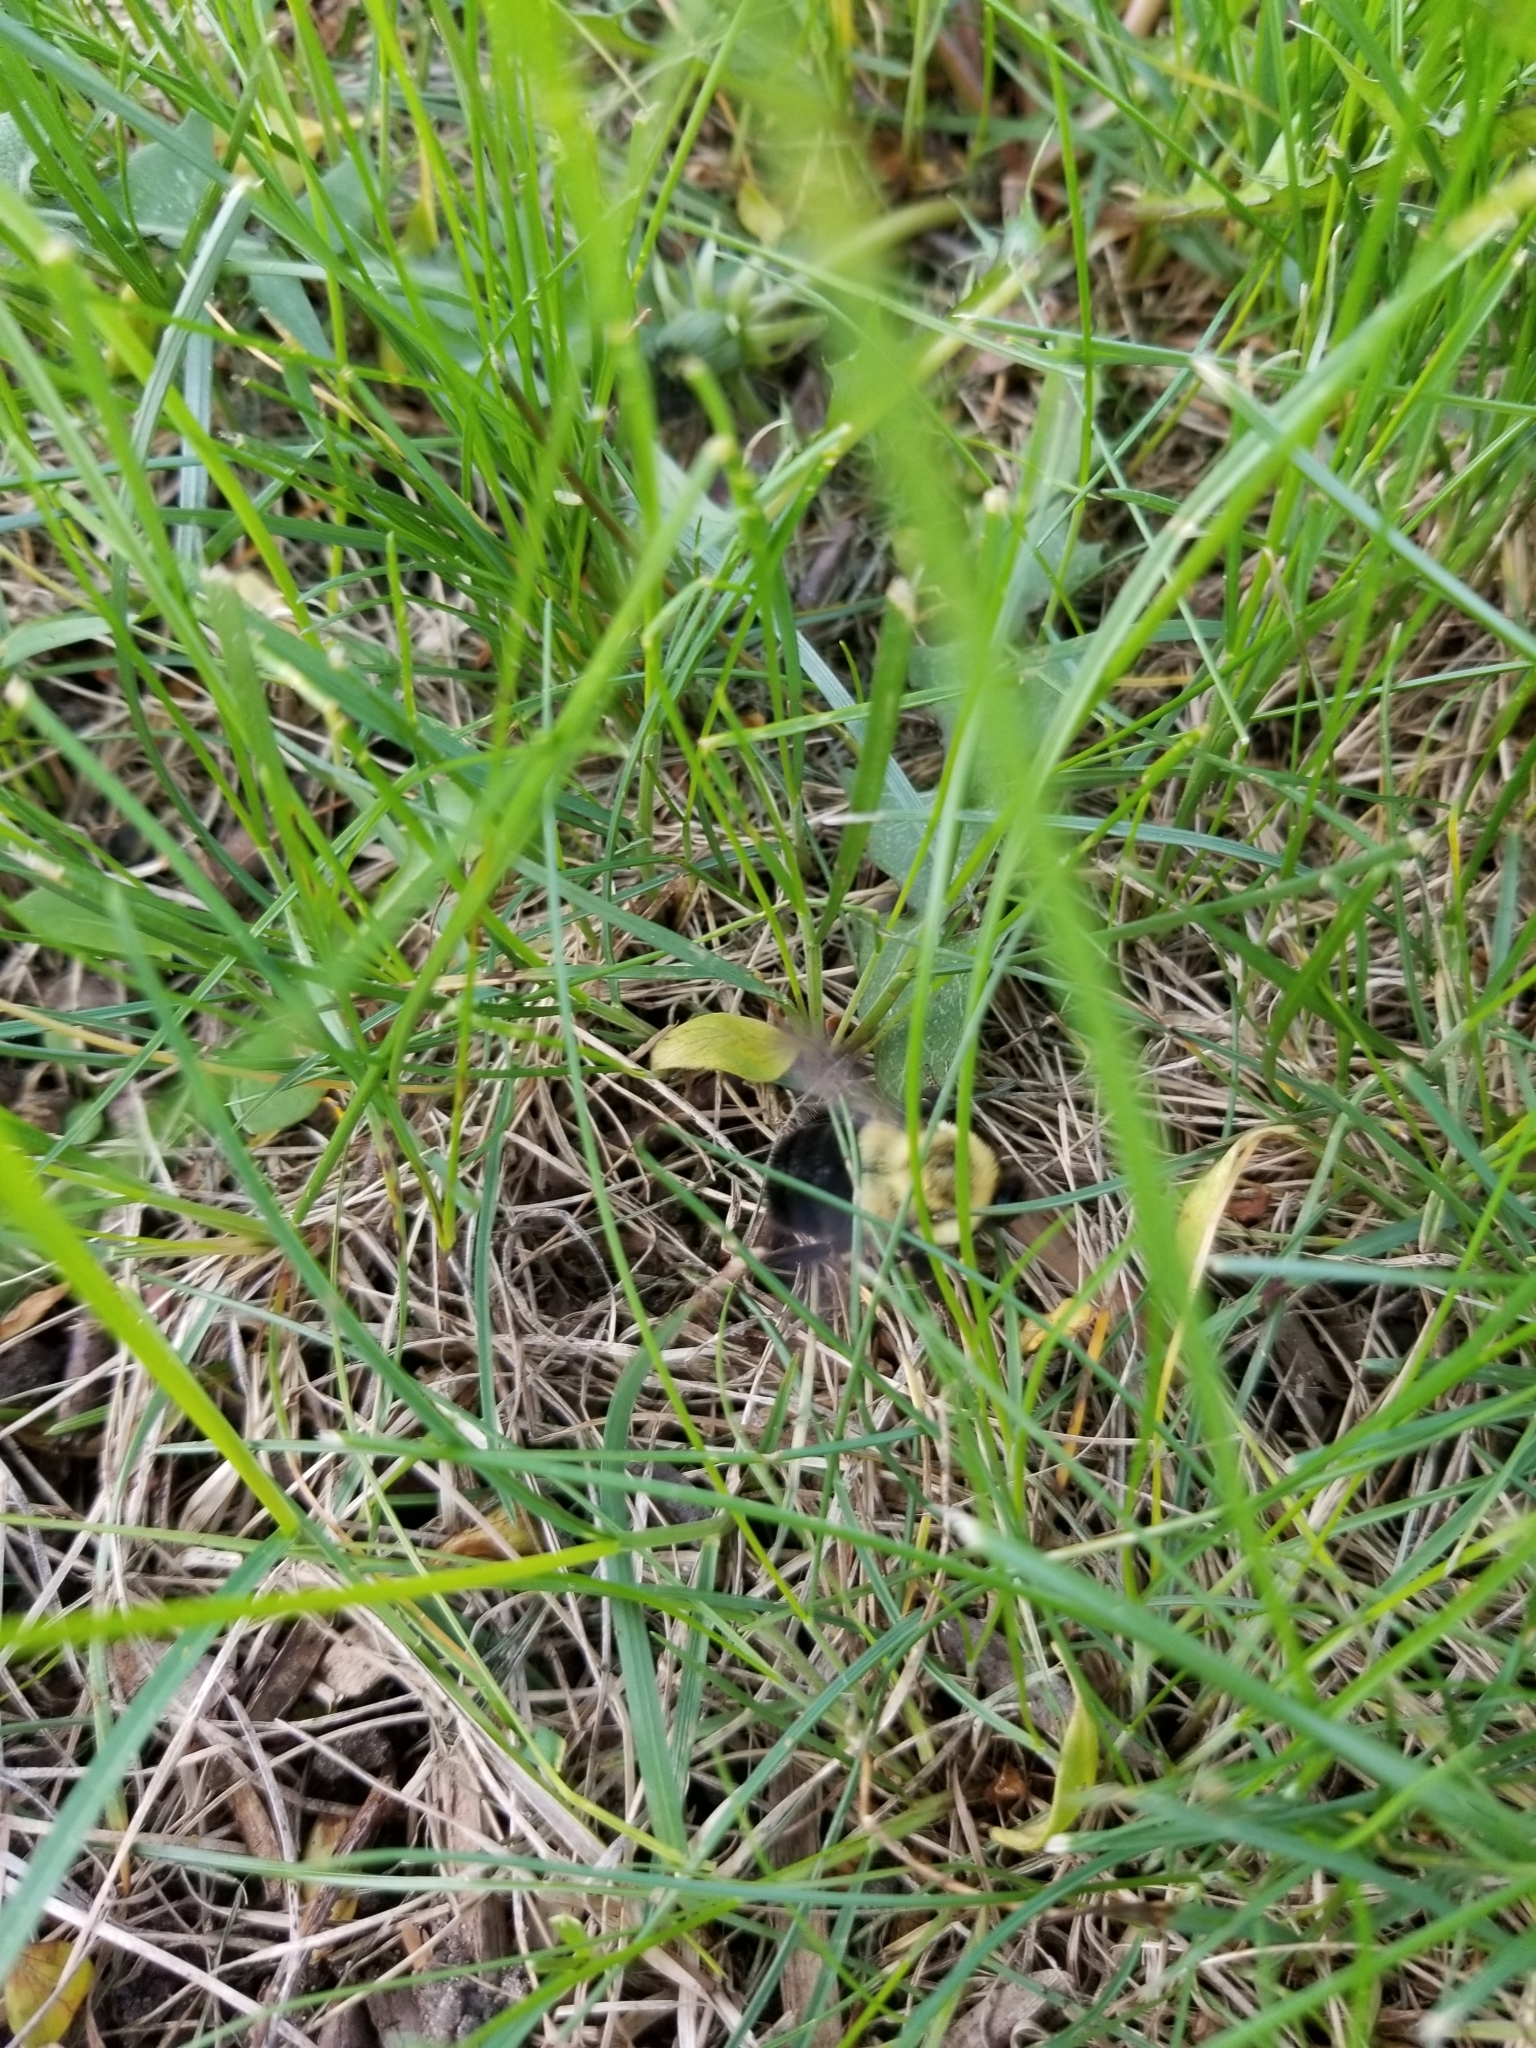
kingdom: Animalia
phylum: Arthropoda
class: Insecta
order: Hymenoptera
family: Apidae
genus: Bombus
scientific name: Bombus impatiens
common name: Common eastern bumble bee
